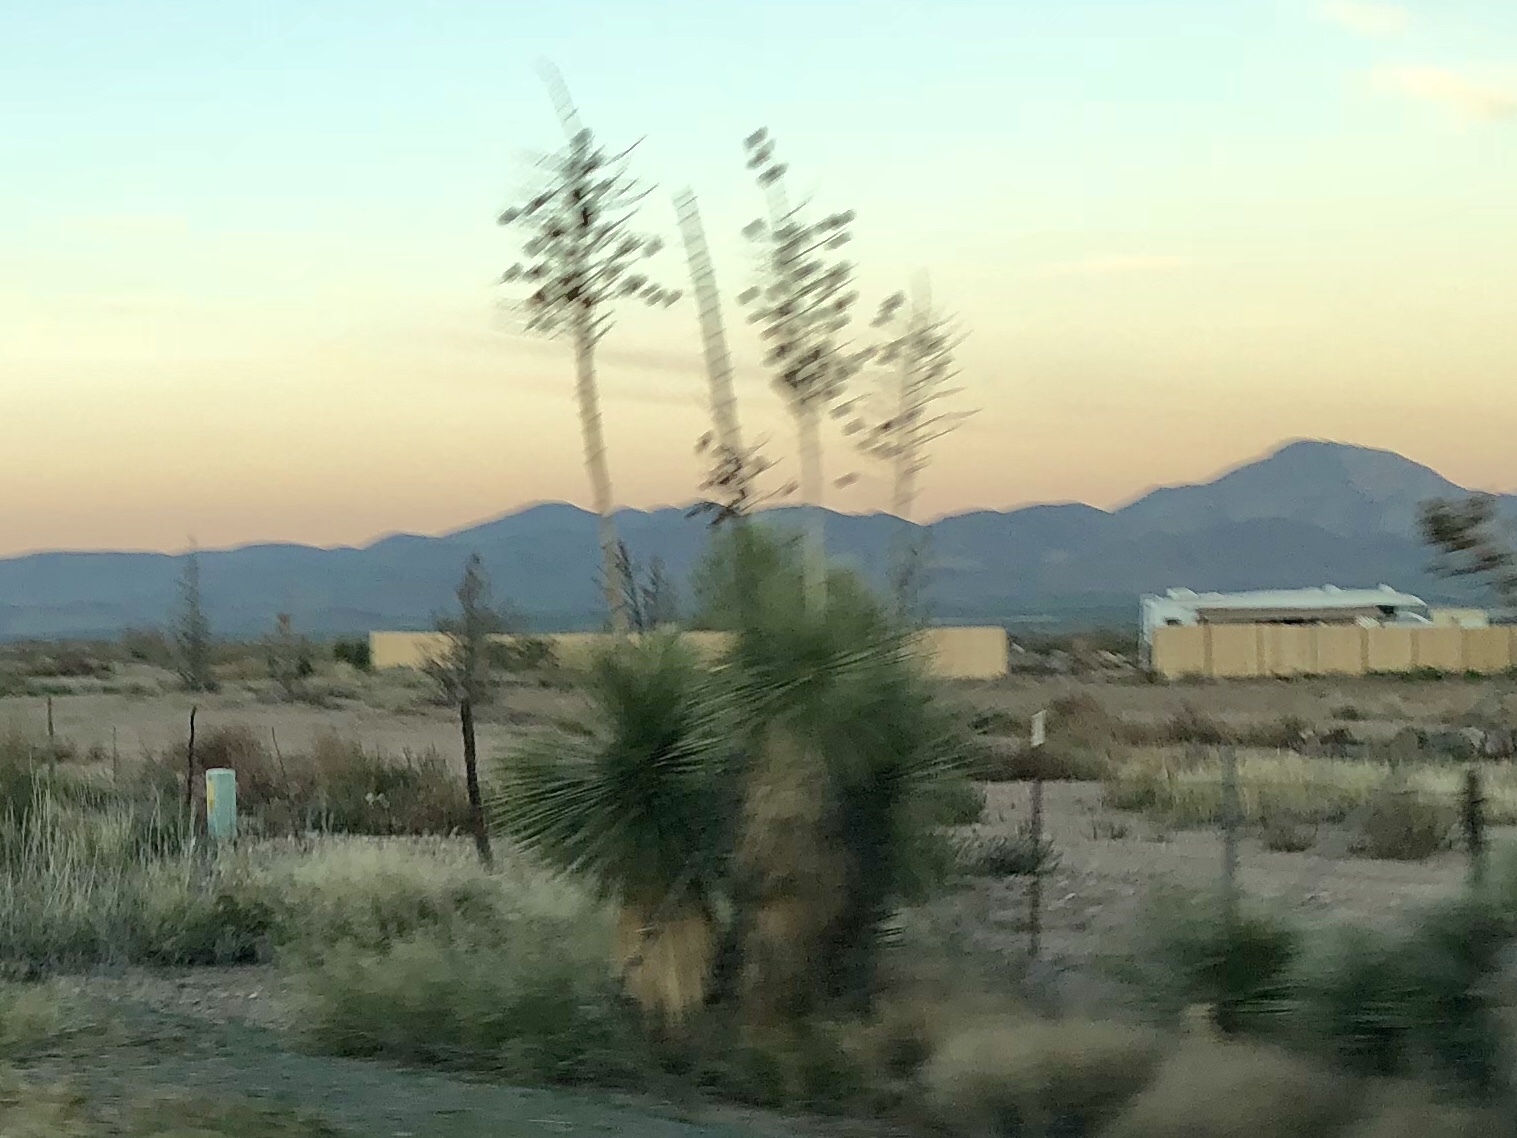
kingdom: Plantae
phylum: Tracheophyta
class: Liliopsida
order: Asparagales
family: Asparagaceae
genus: Yucca
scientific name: Yucca elata
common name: Palmella
